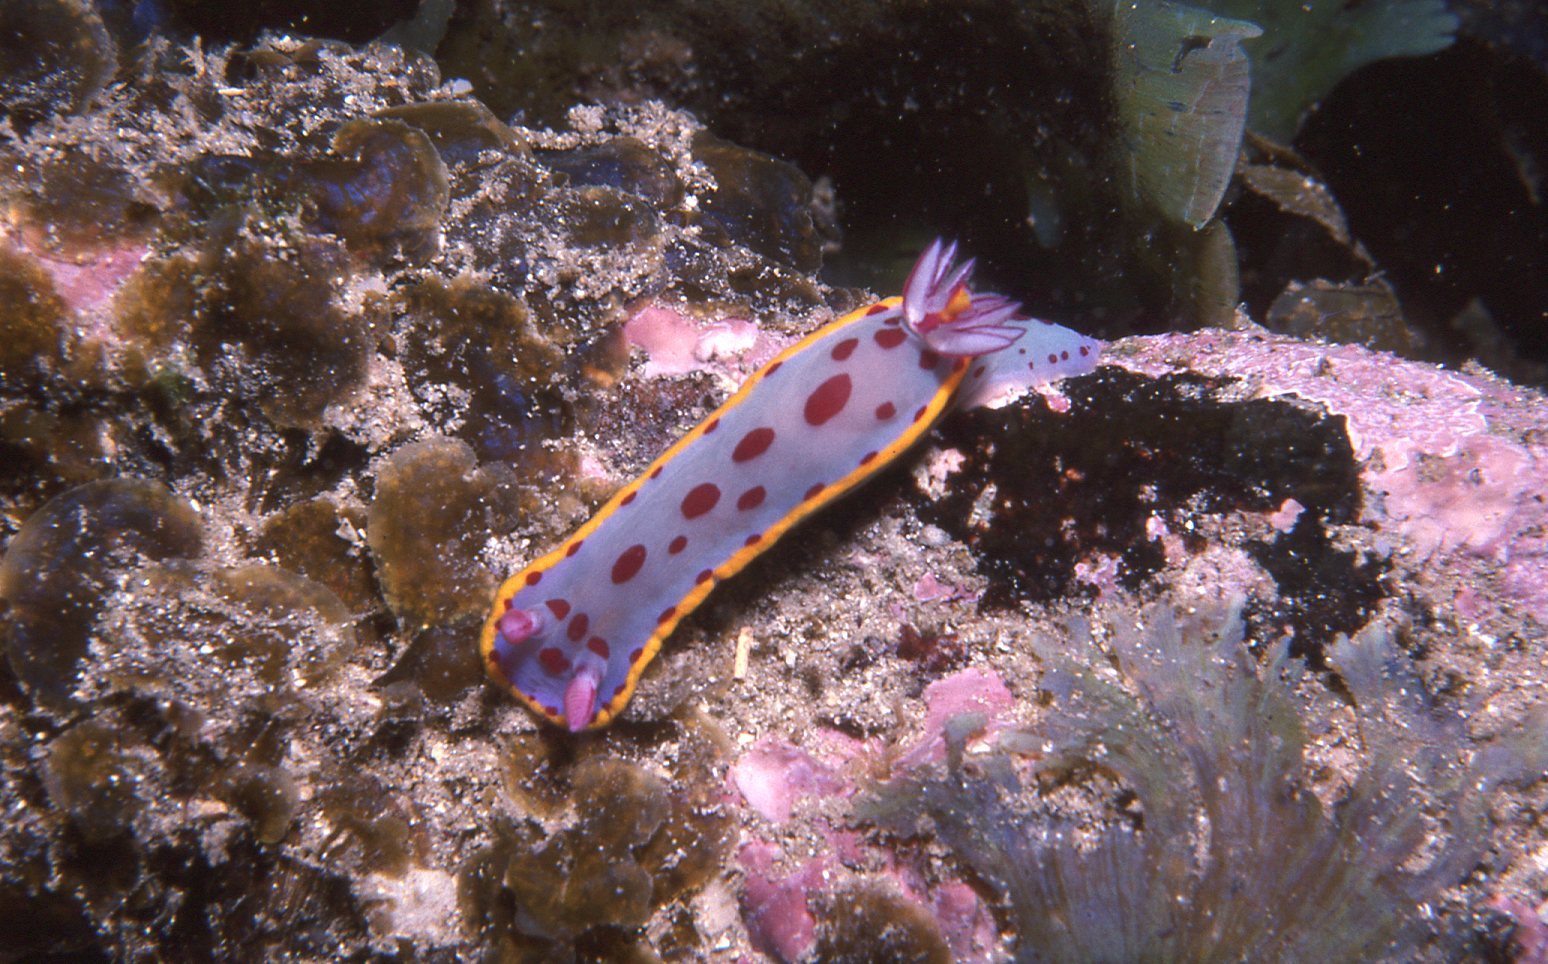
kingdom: Animalia
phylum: Mollusca
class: Gastropoda
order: Nudibranchia
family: Chromodorididae
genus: Hypselodoris
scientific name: Hypselodoris bennetti
